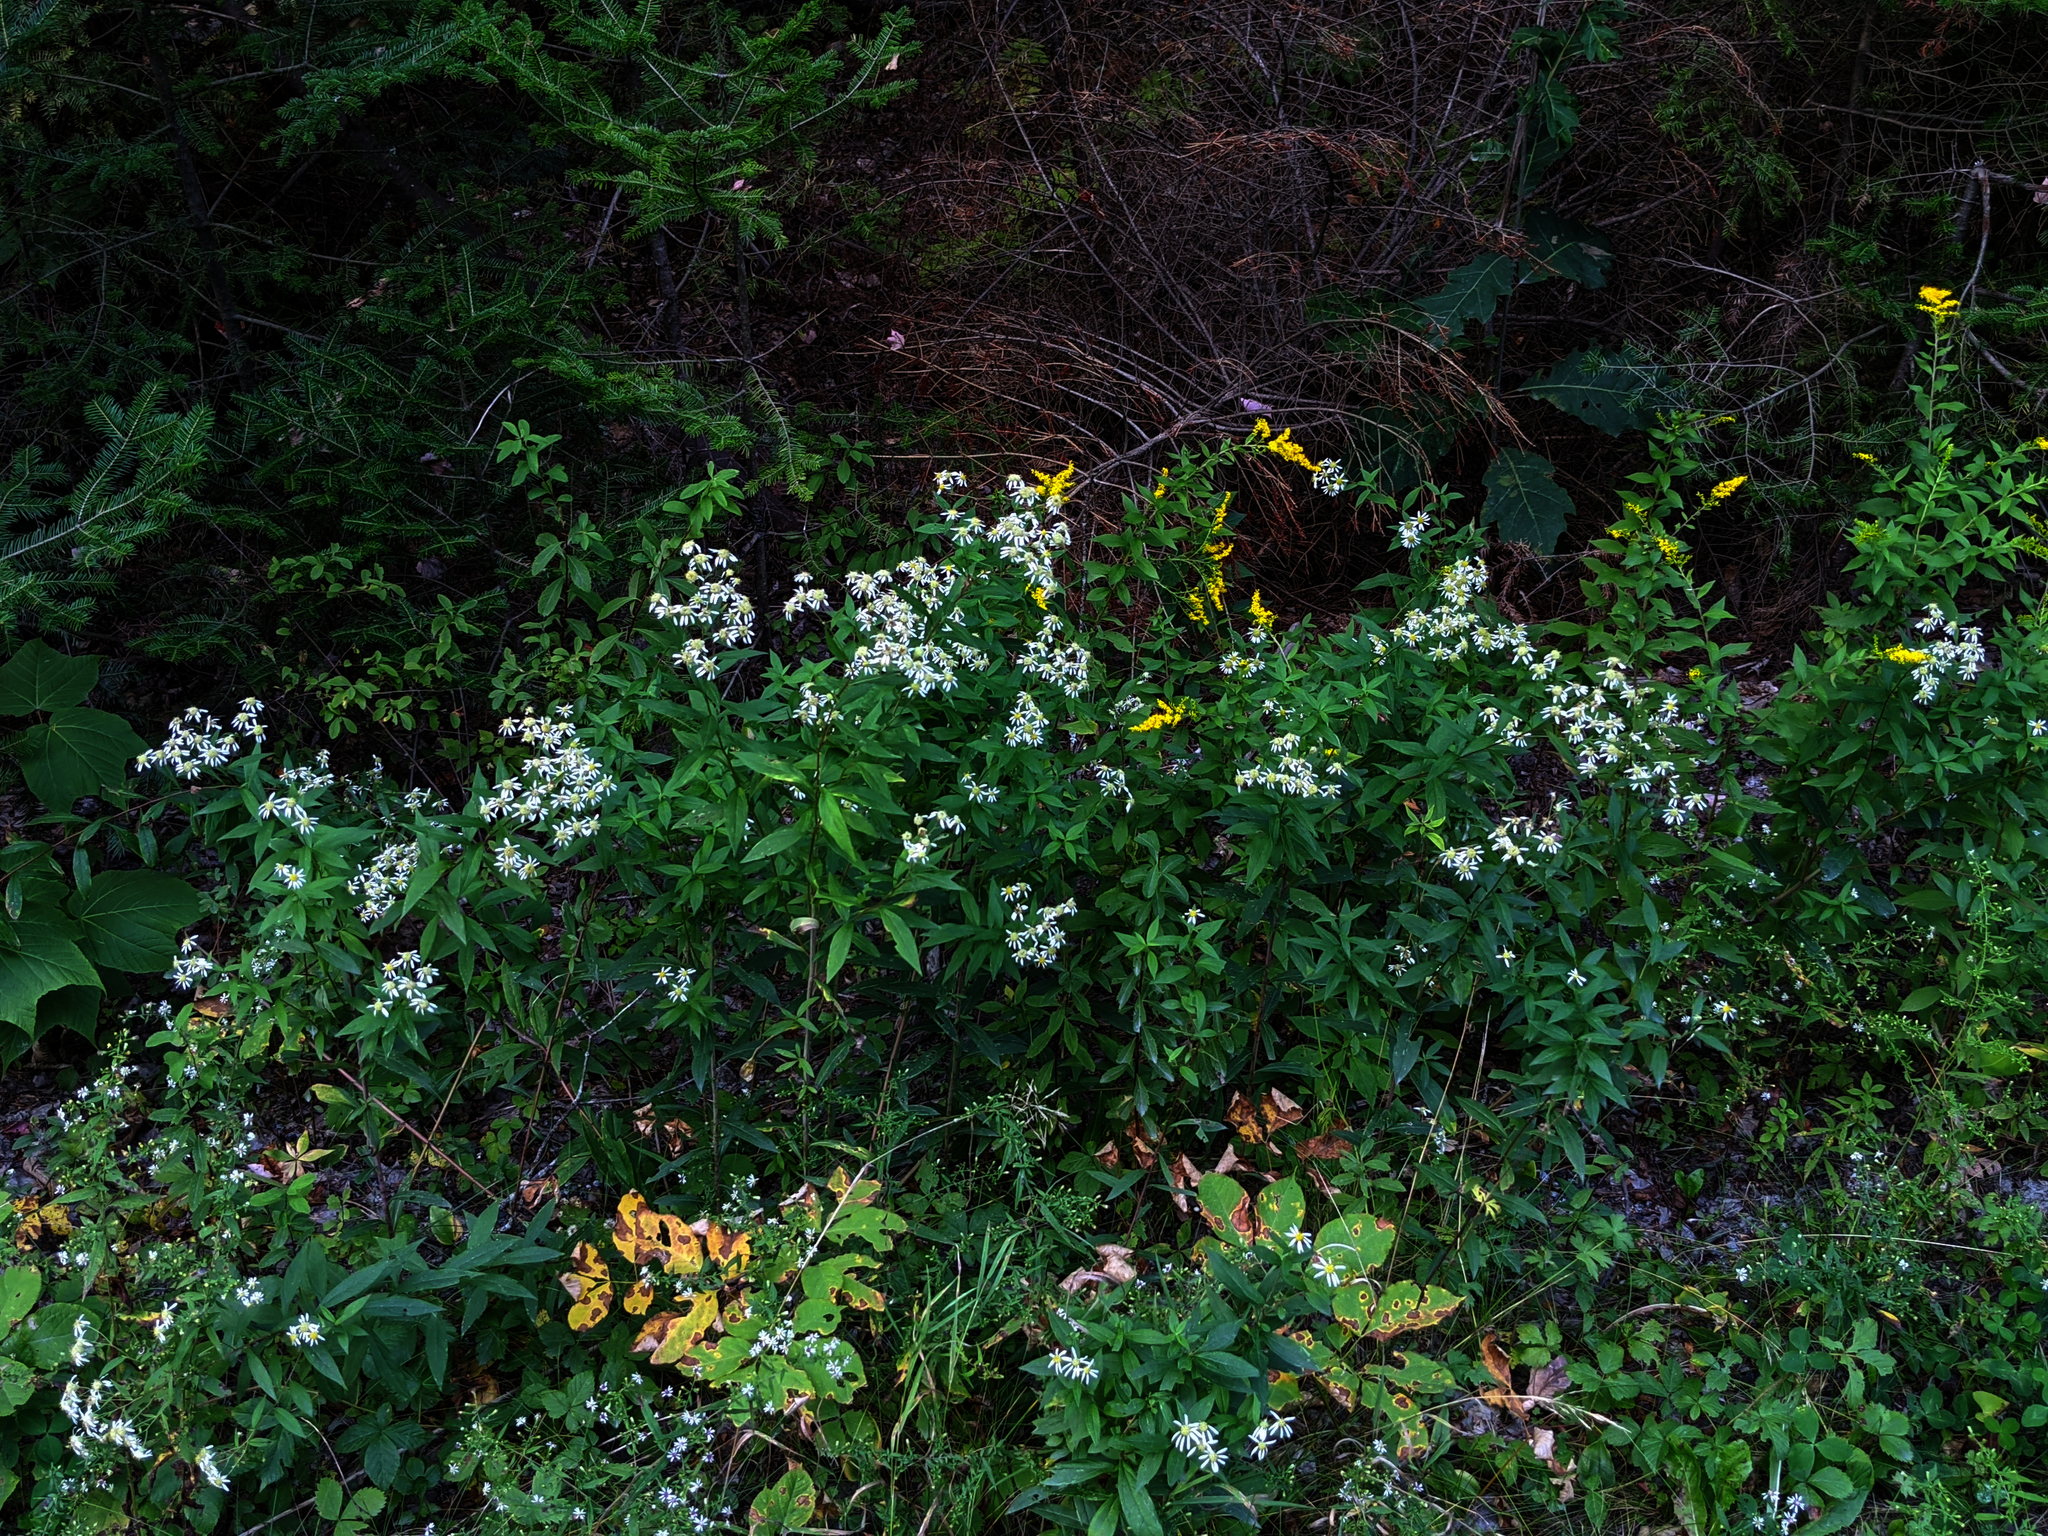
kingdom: Plantae
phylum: Tracheophyta
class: Magnoliopsida
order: Asterales
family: Asteraceae
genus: Doellingeria
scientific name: Doellingeria umbellata
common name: Flat-top white aster
